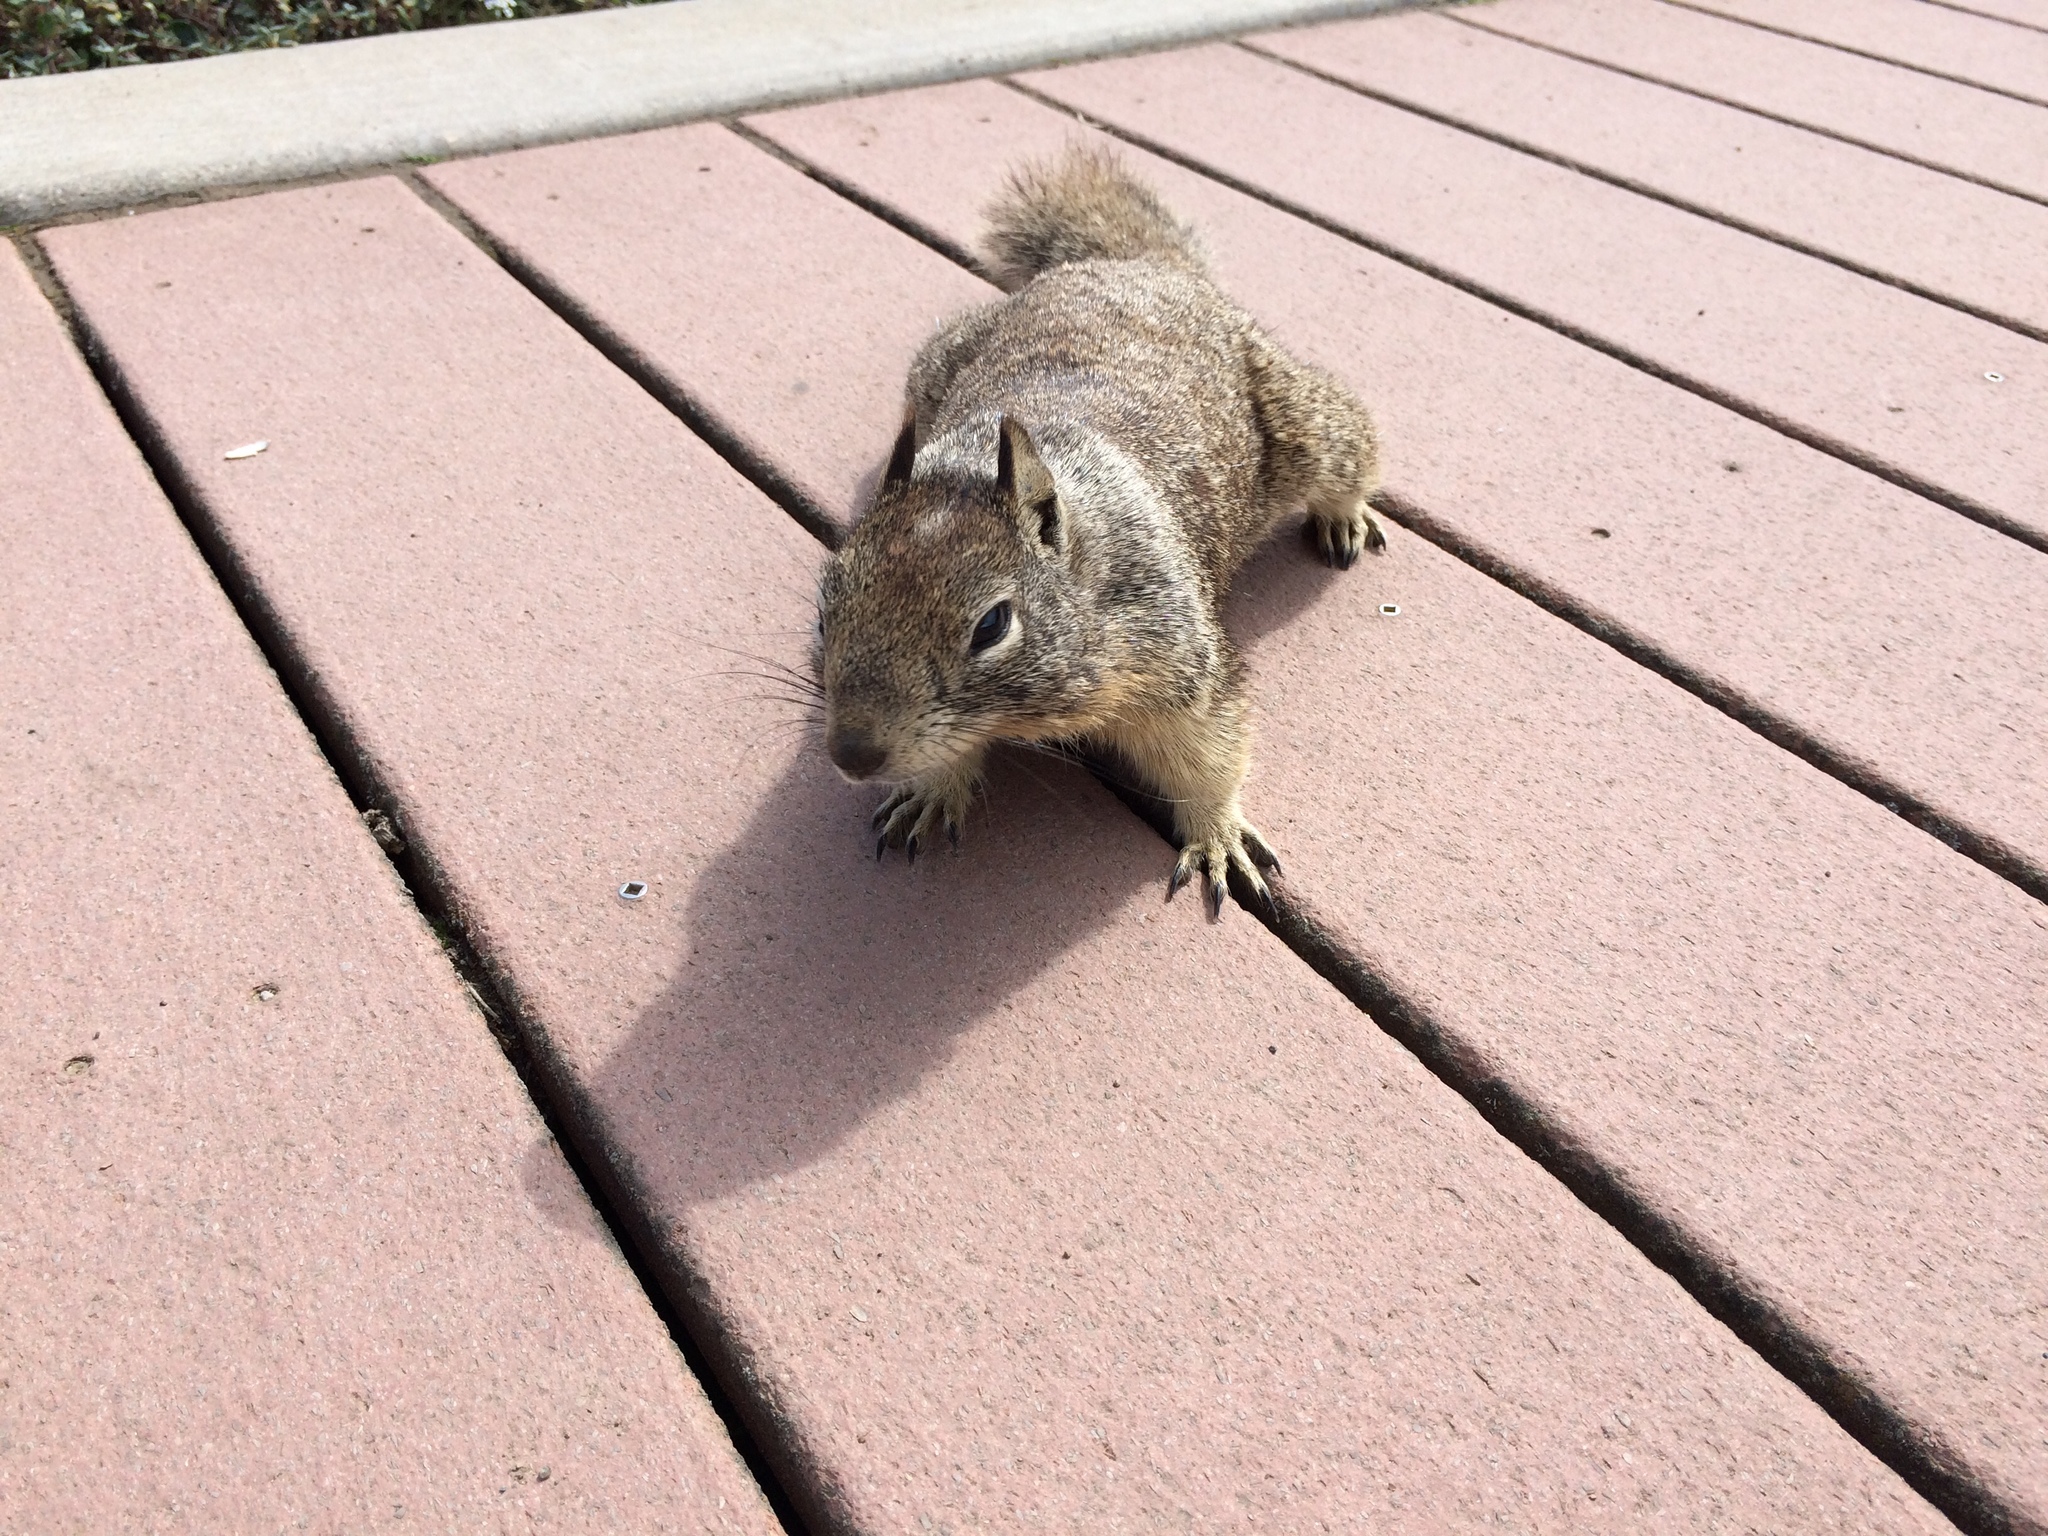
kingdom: Animalia
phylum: Chordata
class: Mammalia
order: Rodentia
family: Sciuridae
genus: Otospermophilus
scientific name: Otospermophilus beecheyi
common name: California ground squirrel
